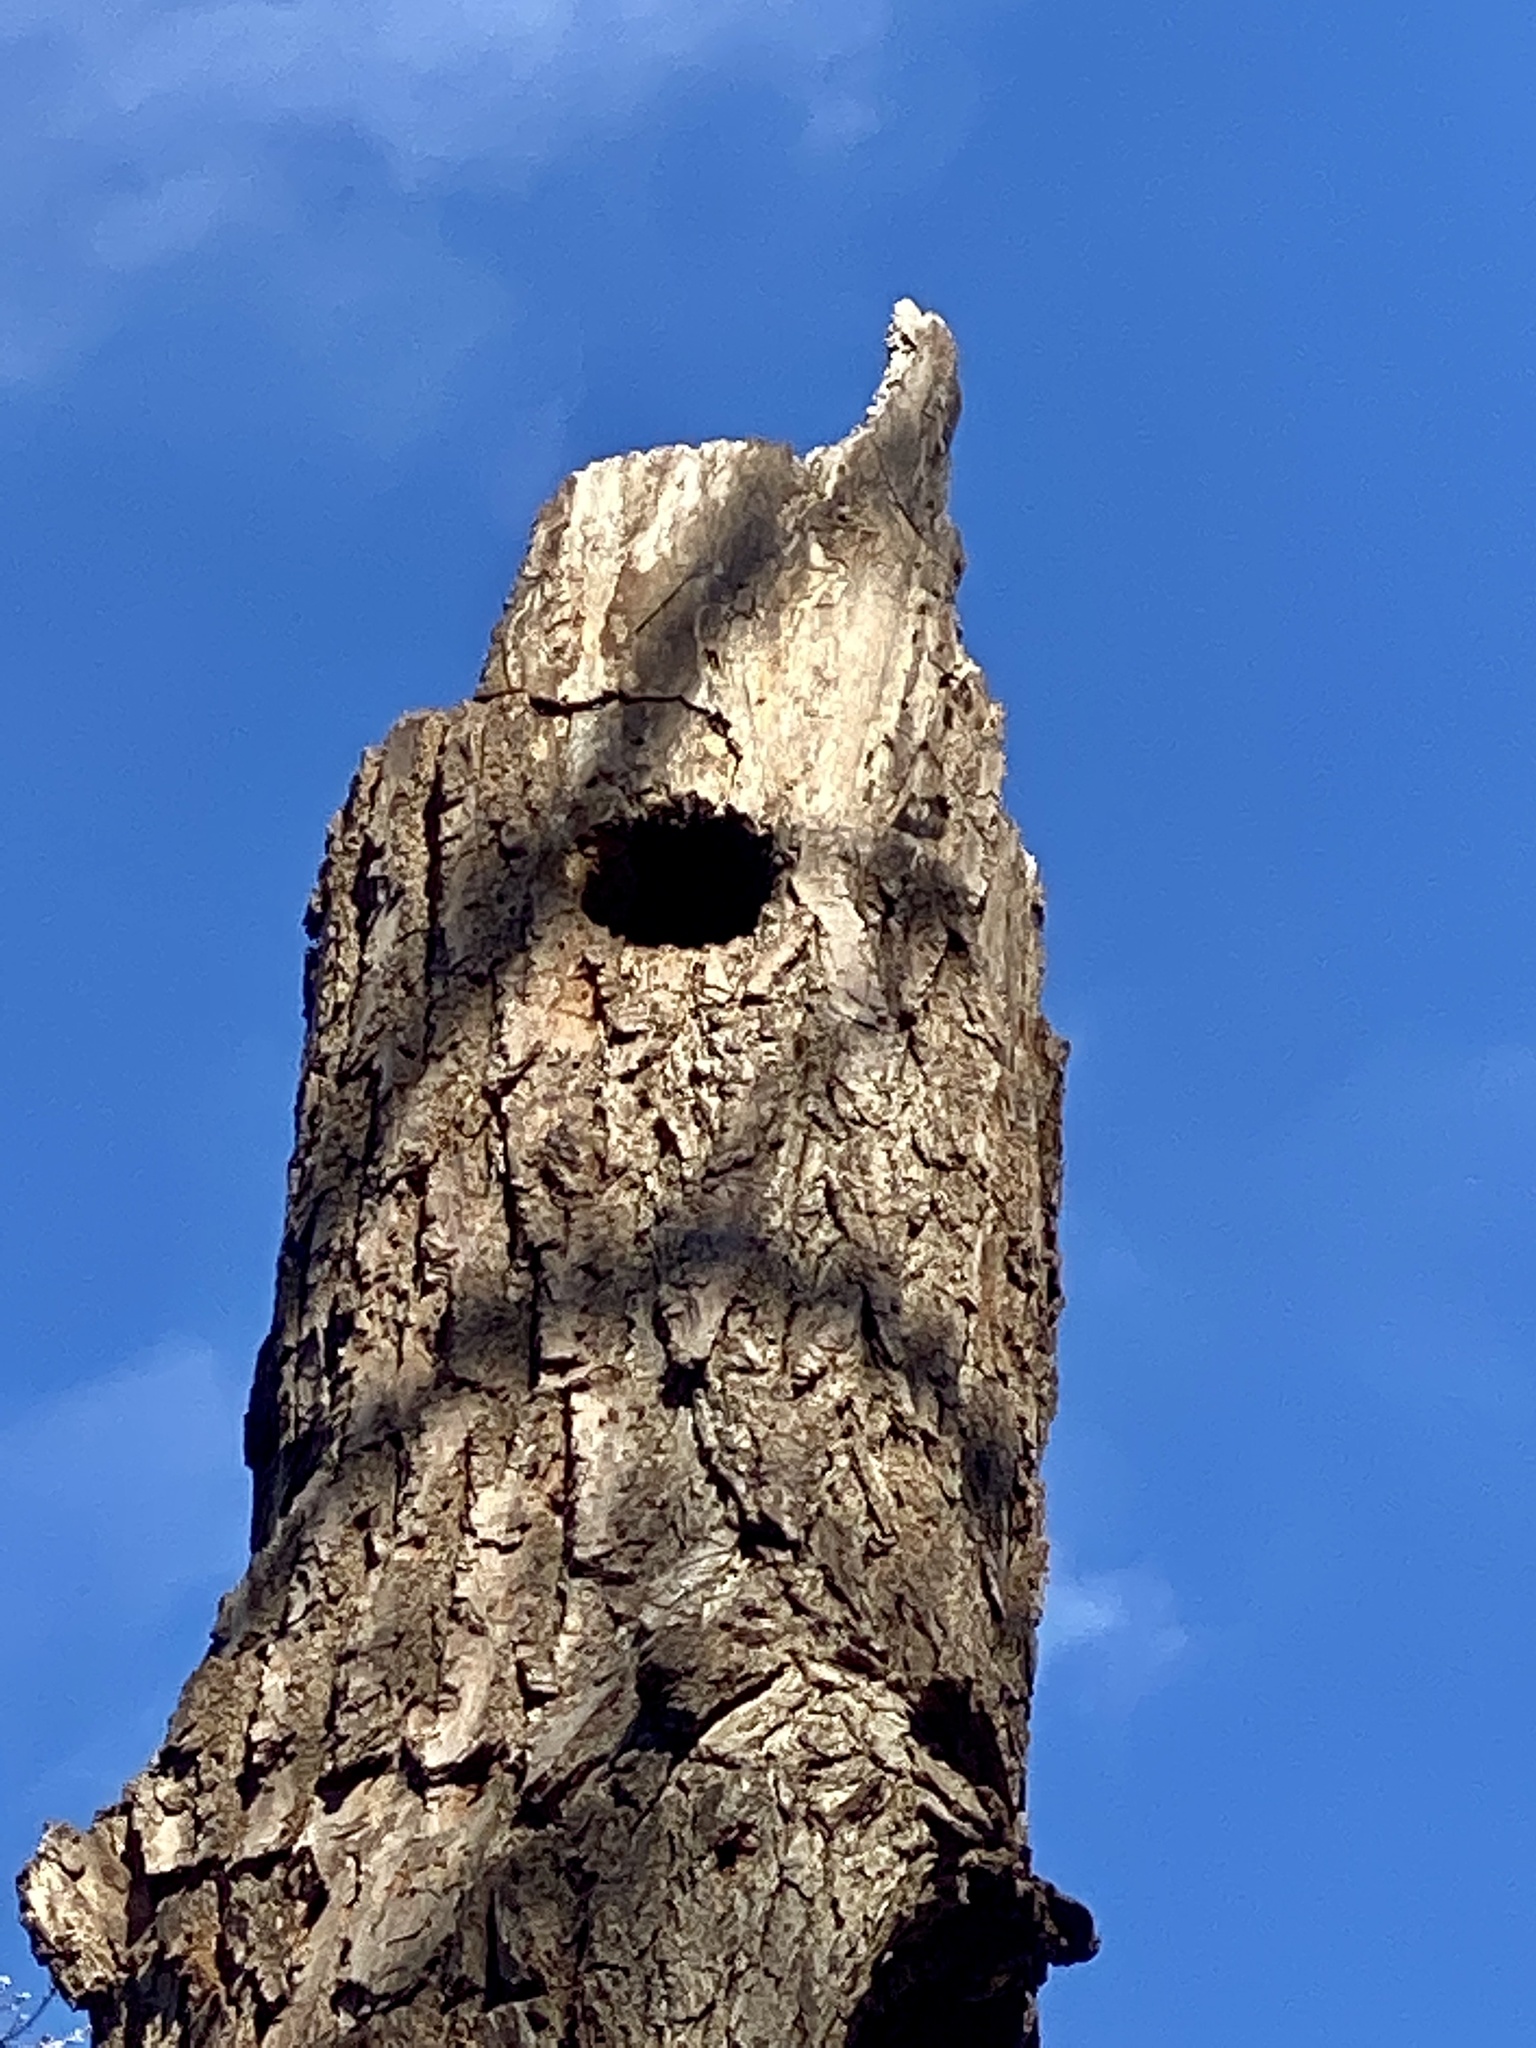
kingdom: Plantae
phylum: Tracheophyta
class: Magnoliopsida
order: Laurales
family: Lauraceae
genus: Sassafras
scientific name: Sassafras albidum
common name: Sassafras
